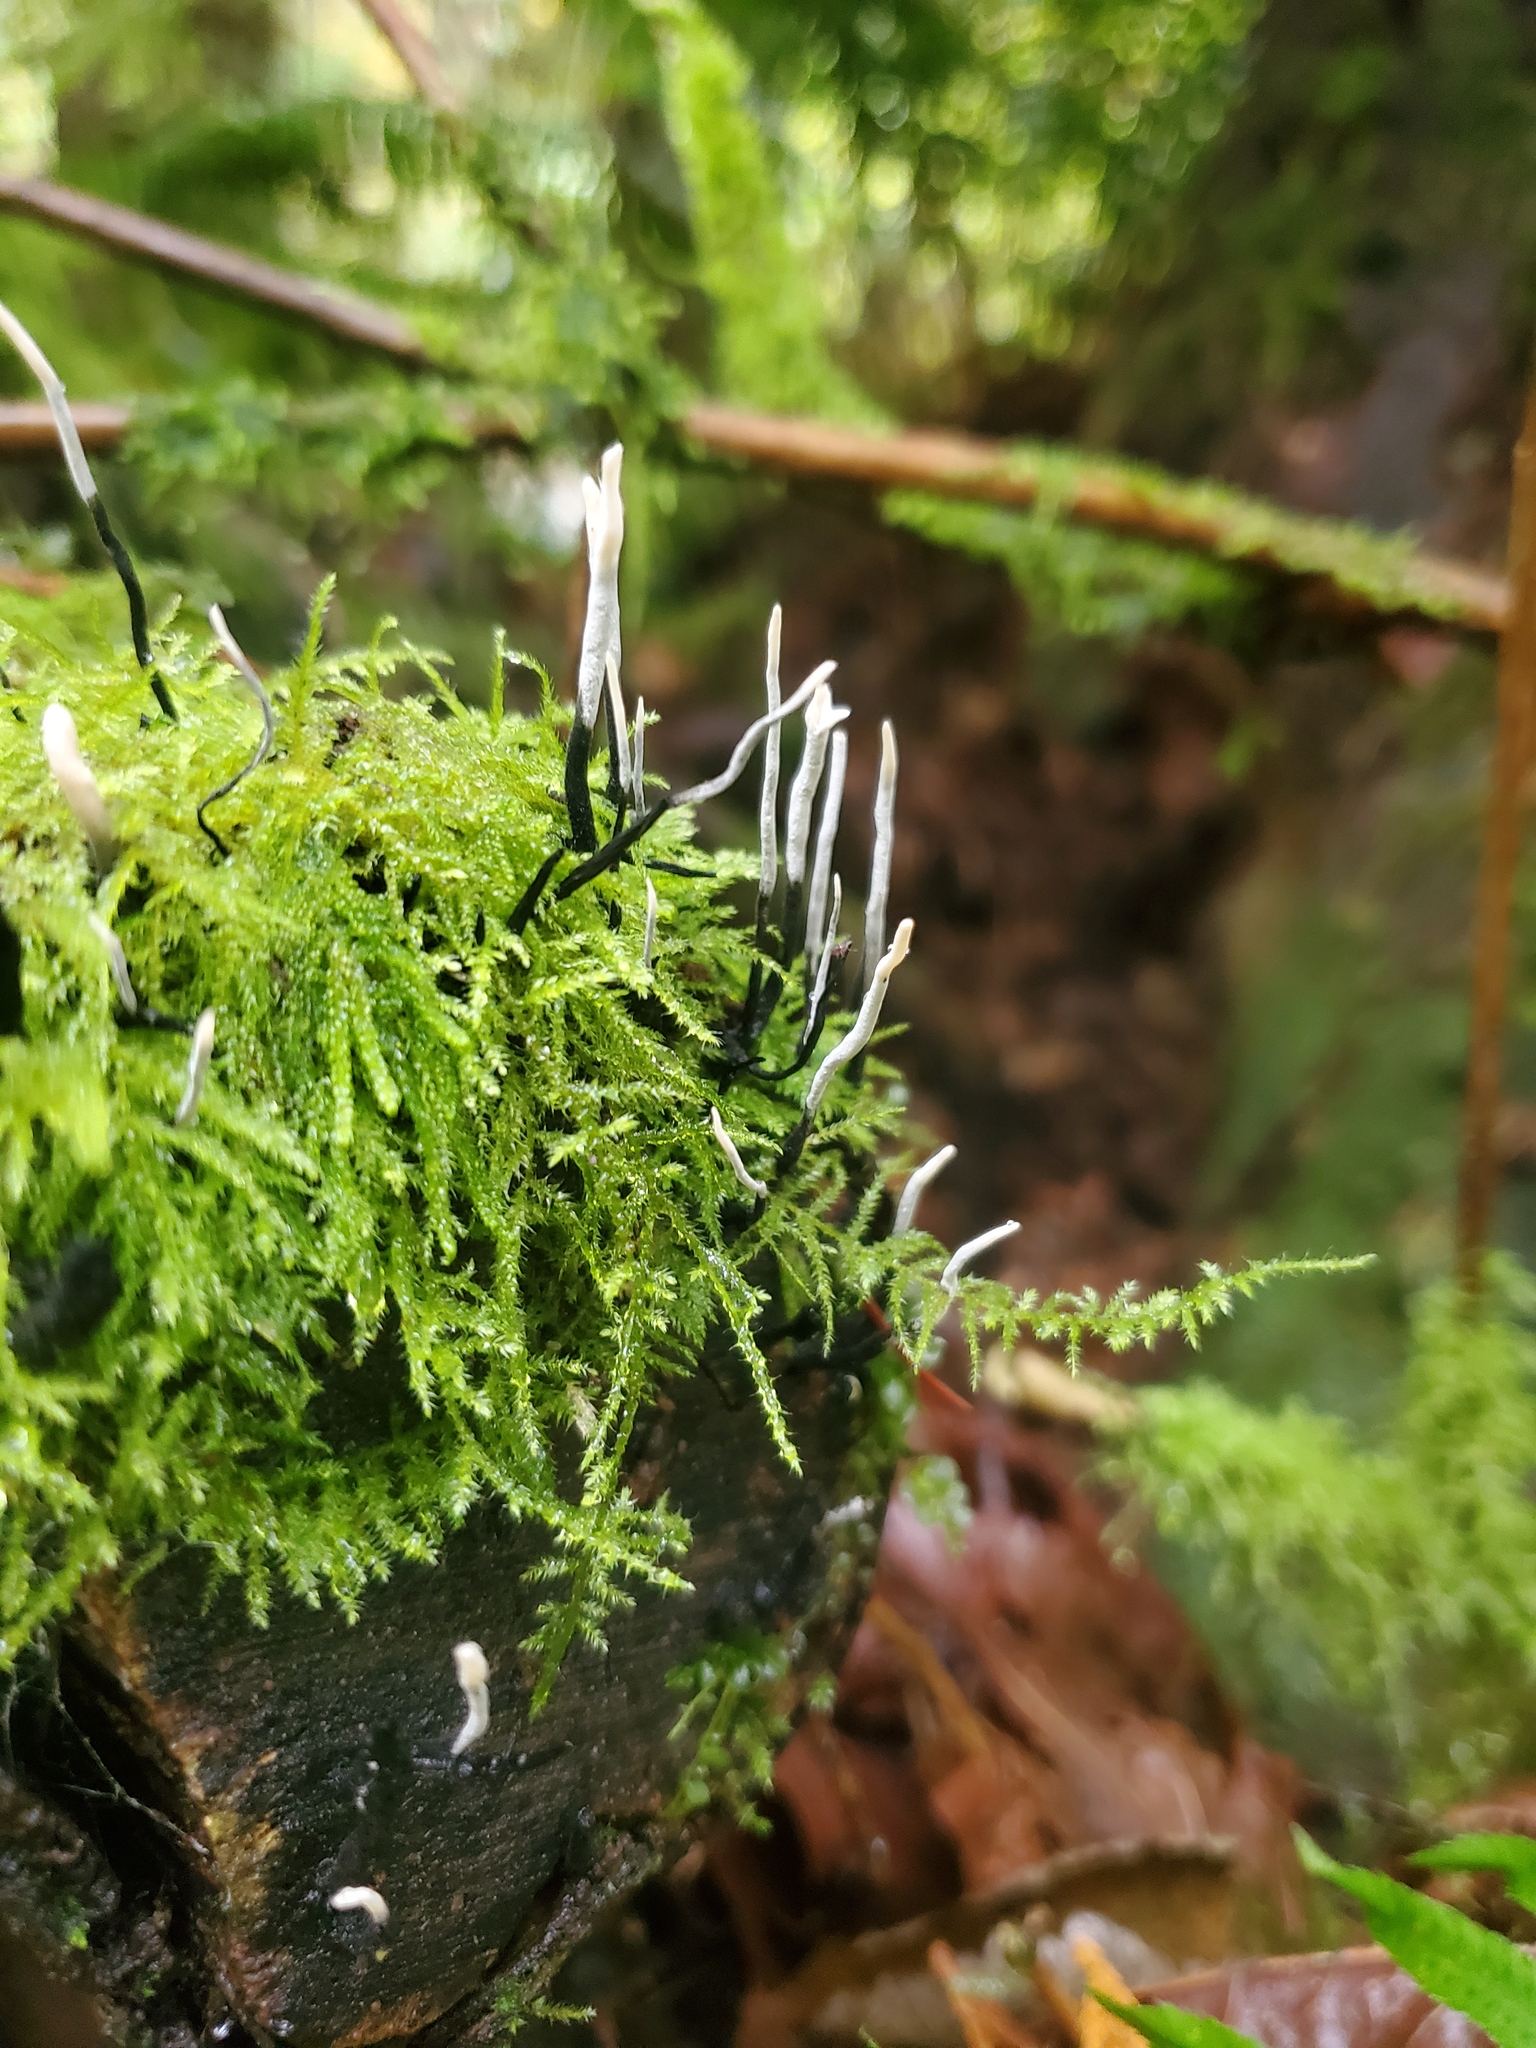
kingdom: Fungi
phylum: Ascomycota
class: Sordariomycetes
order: Xylariales
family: Xylariaceae
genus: Xylaria
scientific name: Xylaria hypoxylon
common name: Candle-snuff fungus
